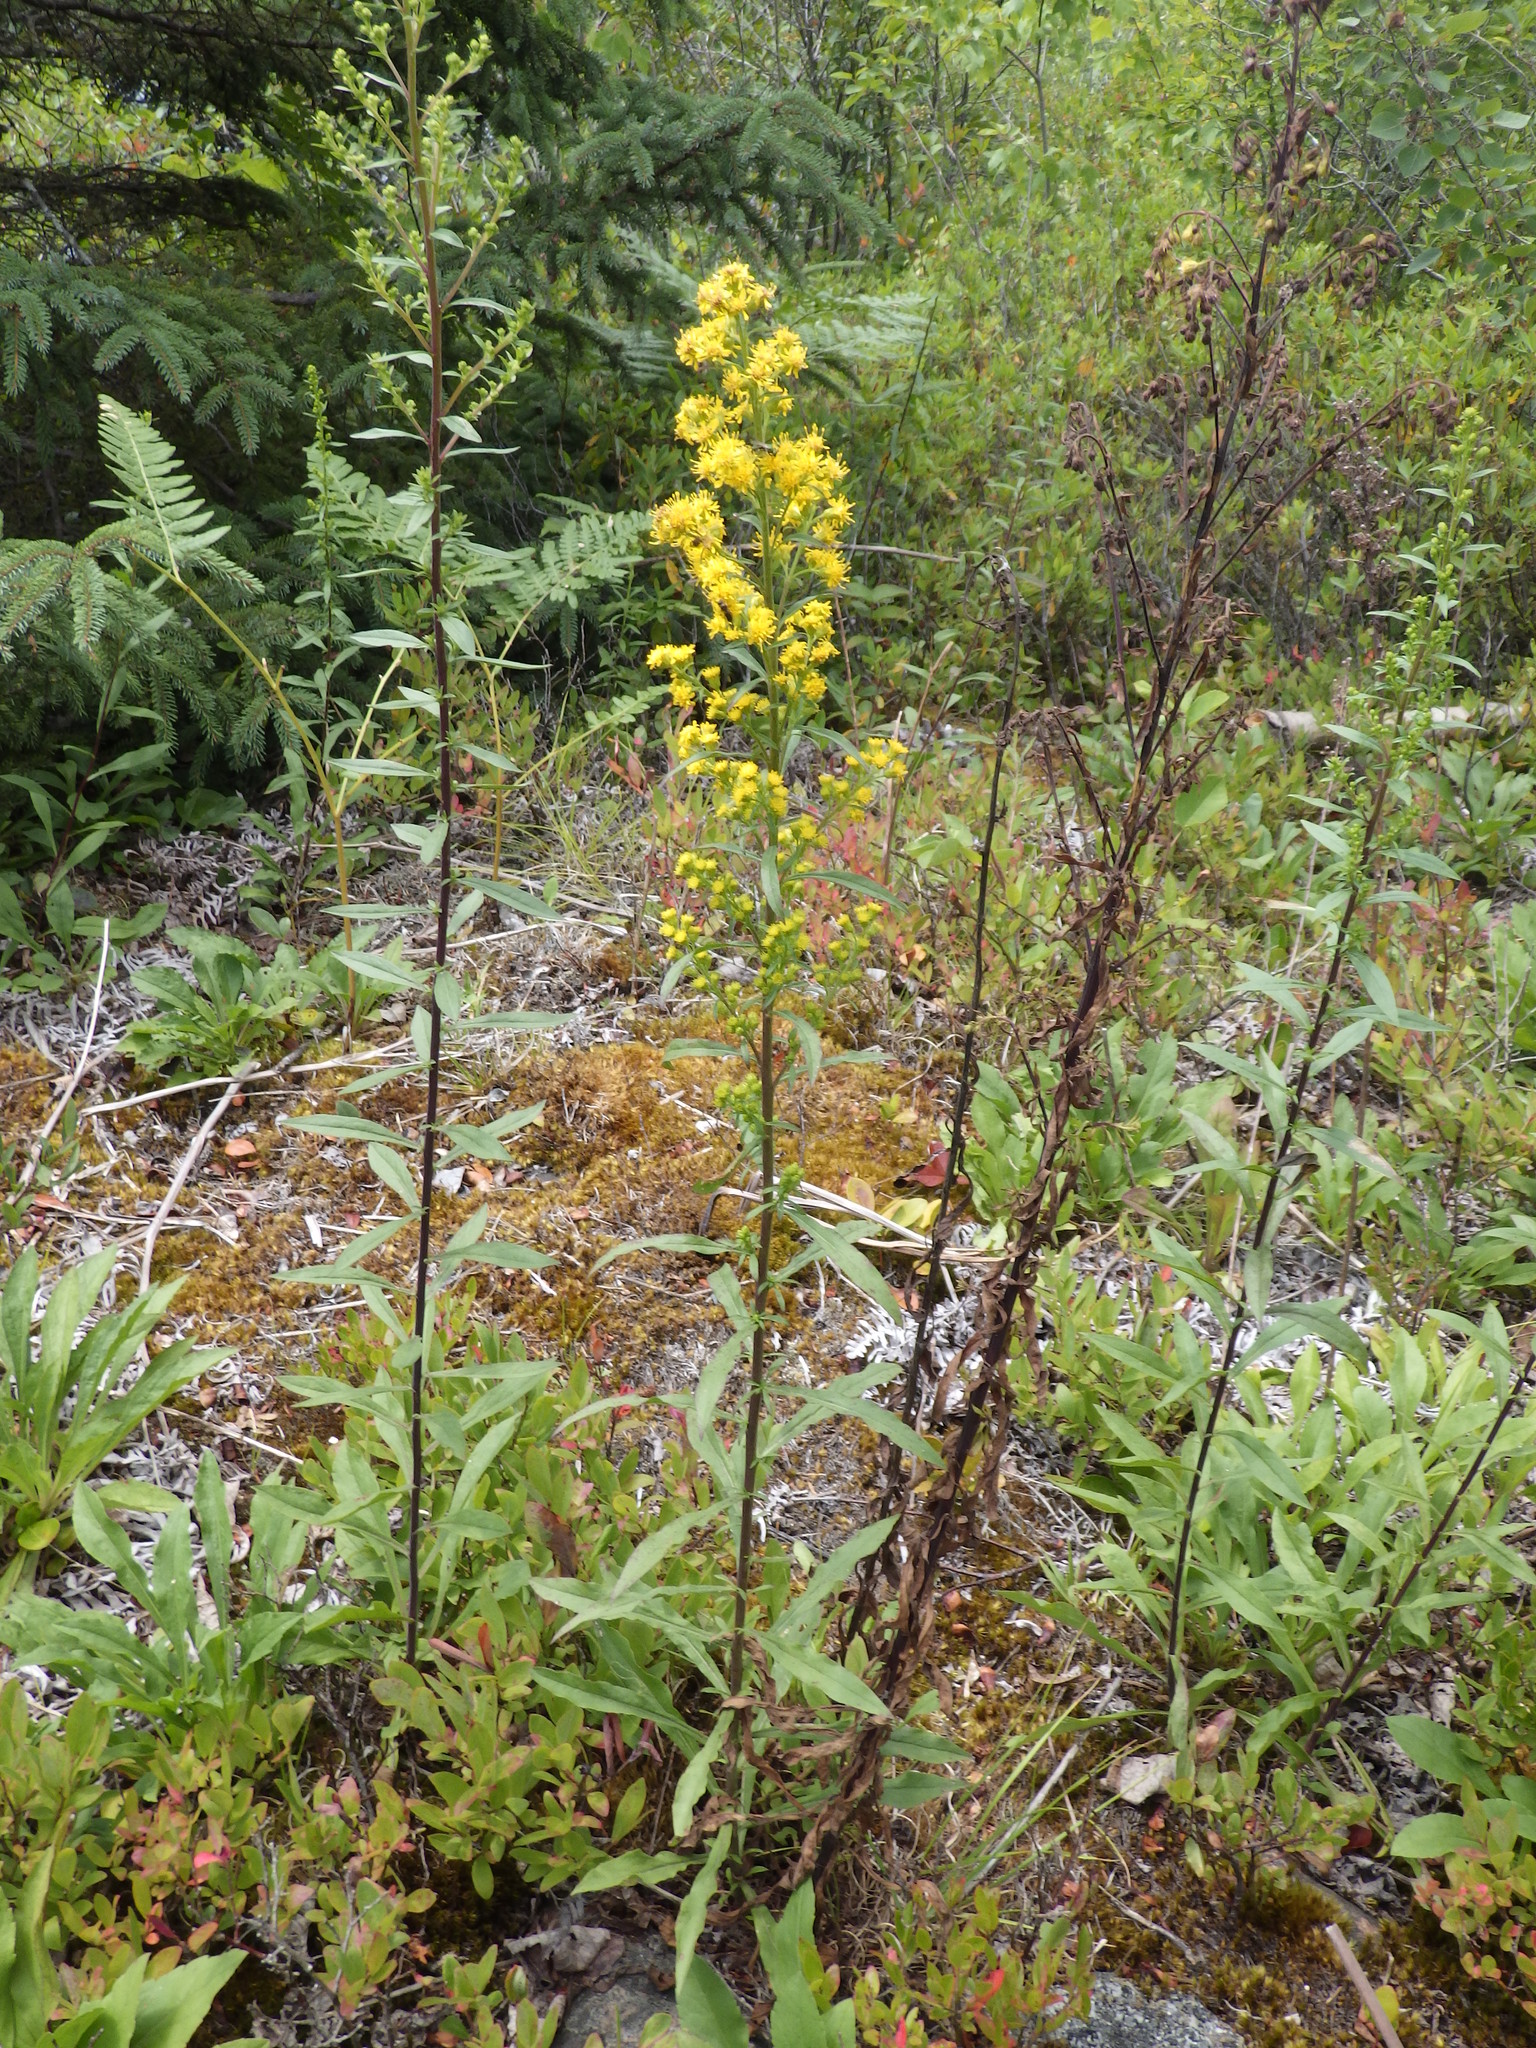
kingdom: Plantae
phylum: Tracheophyta
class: Magnoliopsida
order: Asterales
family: Asteraceae
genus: Solidago
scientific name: Solidago puberula
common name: Downy goldenrod
